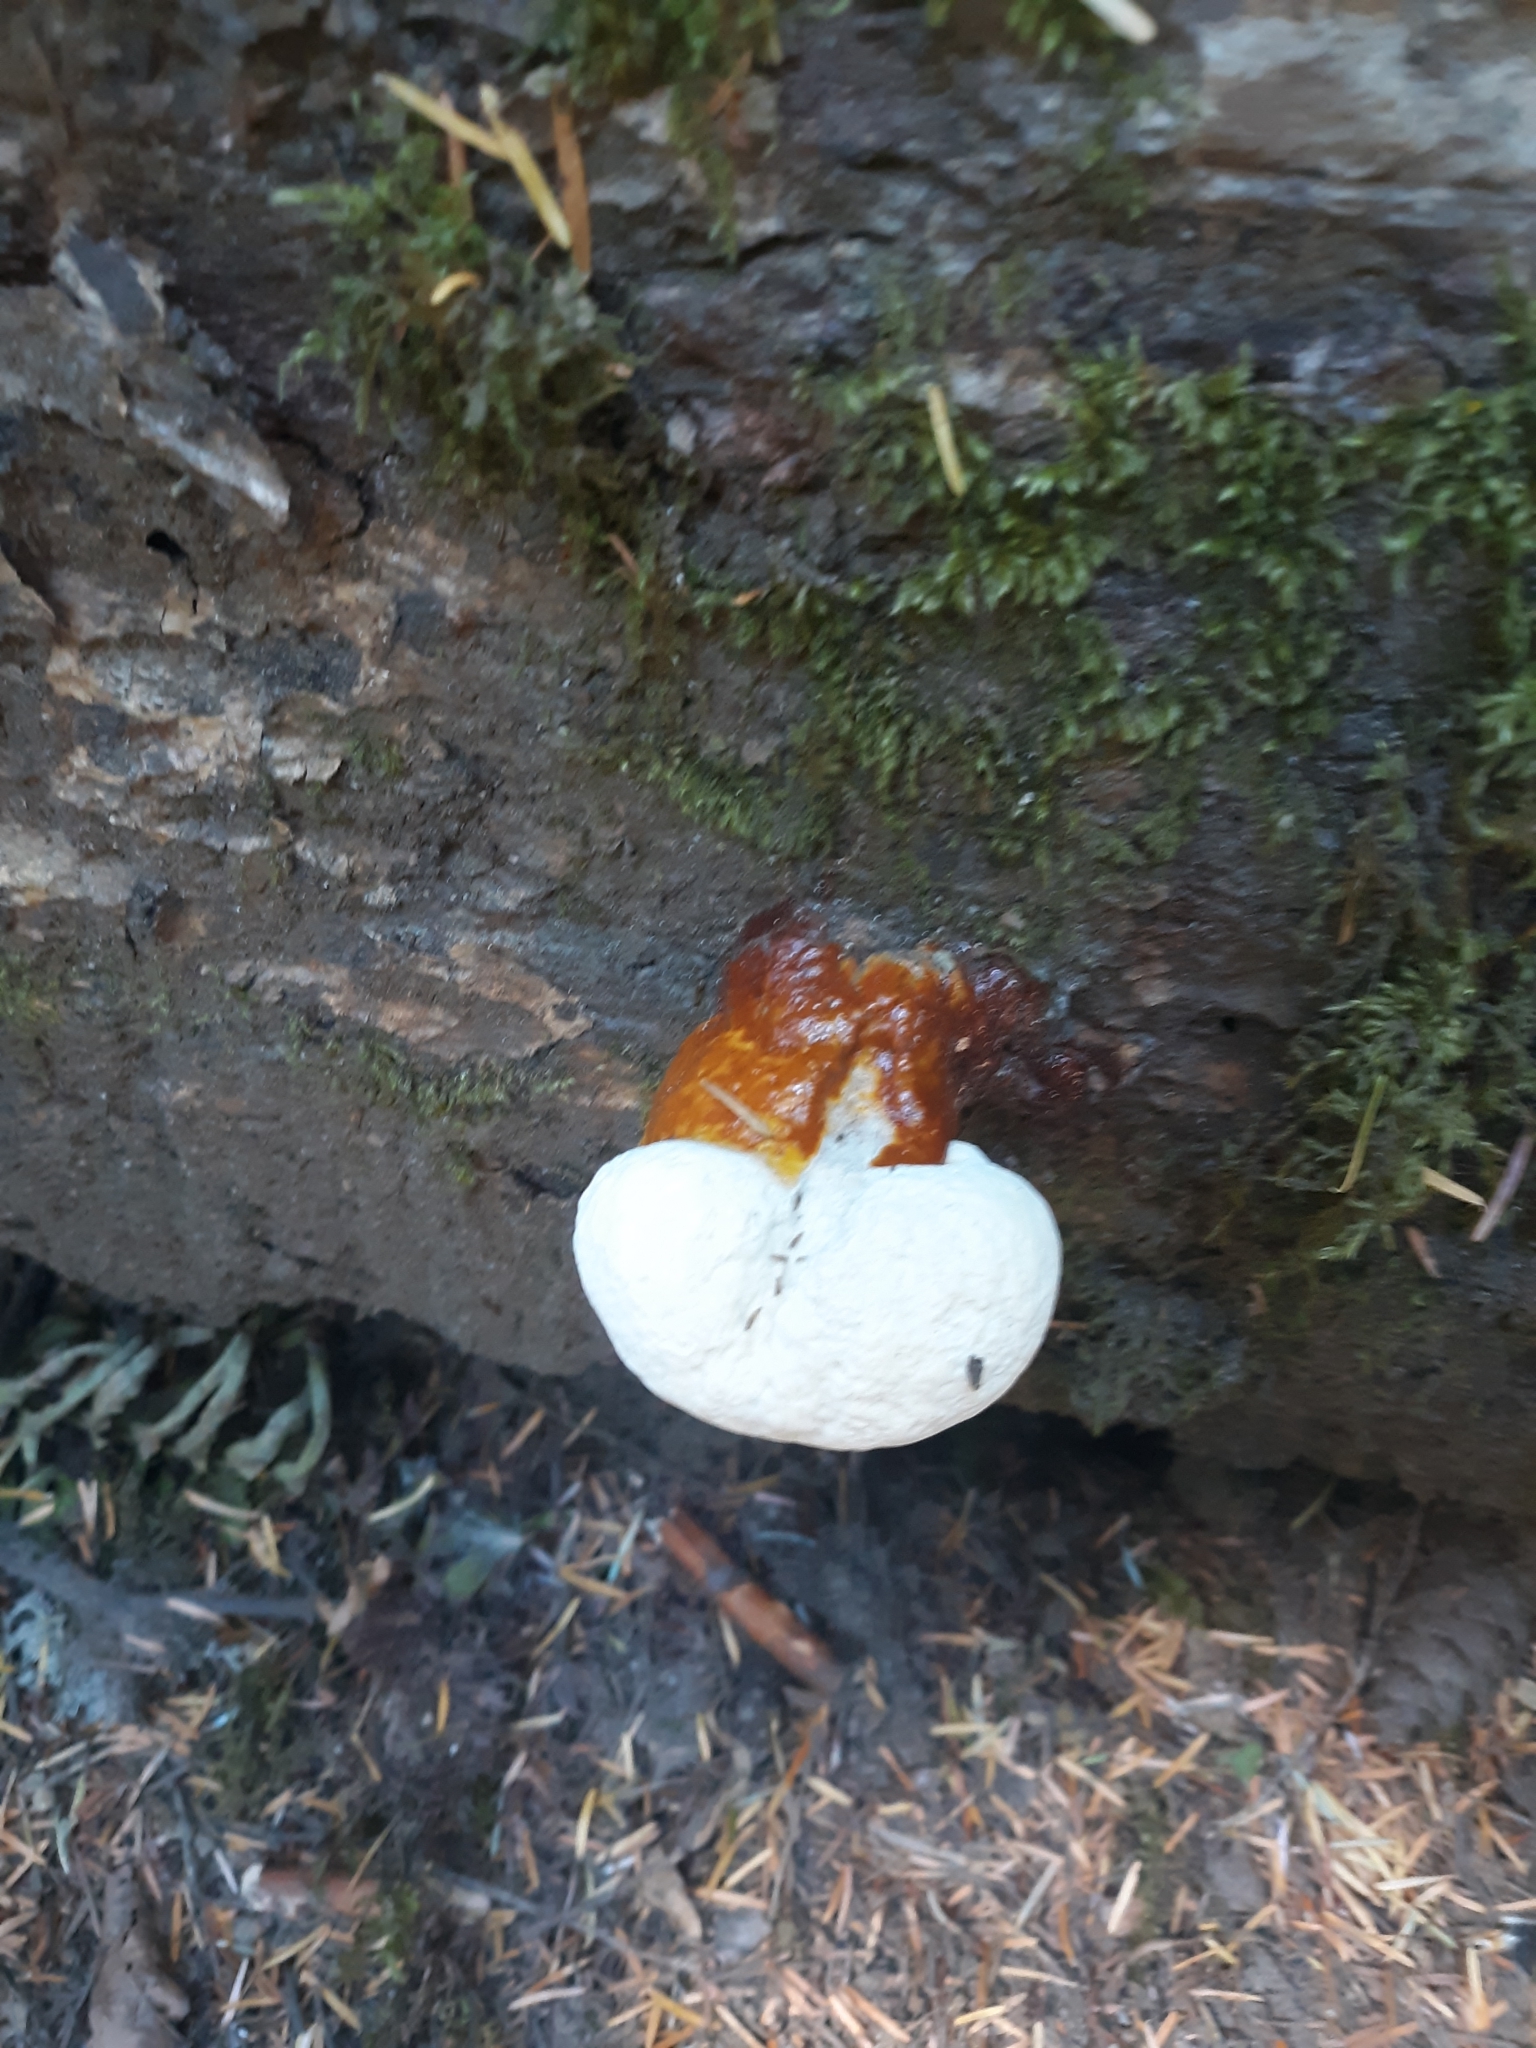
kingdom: Fungi
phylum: Basidiomycota
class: Agaricomycetes
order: Polyporales
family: Polyporaceae
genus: Ganoderma
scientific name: Ganoderma oregonense
